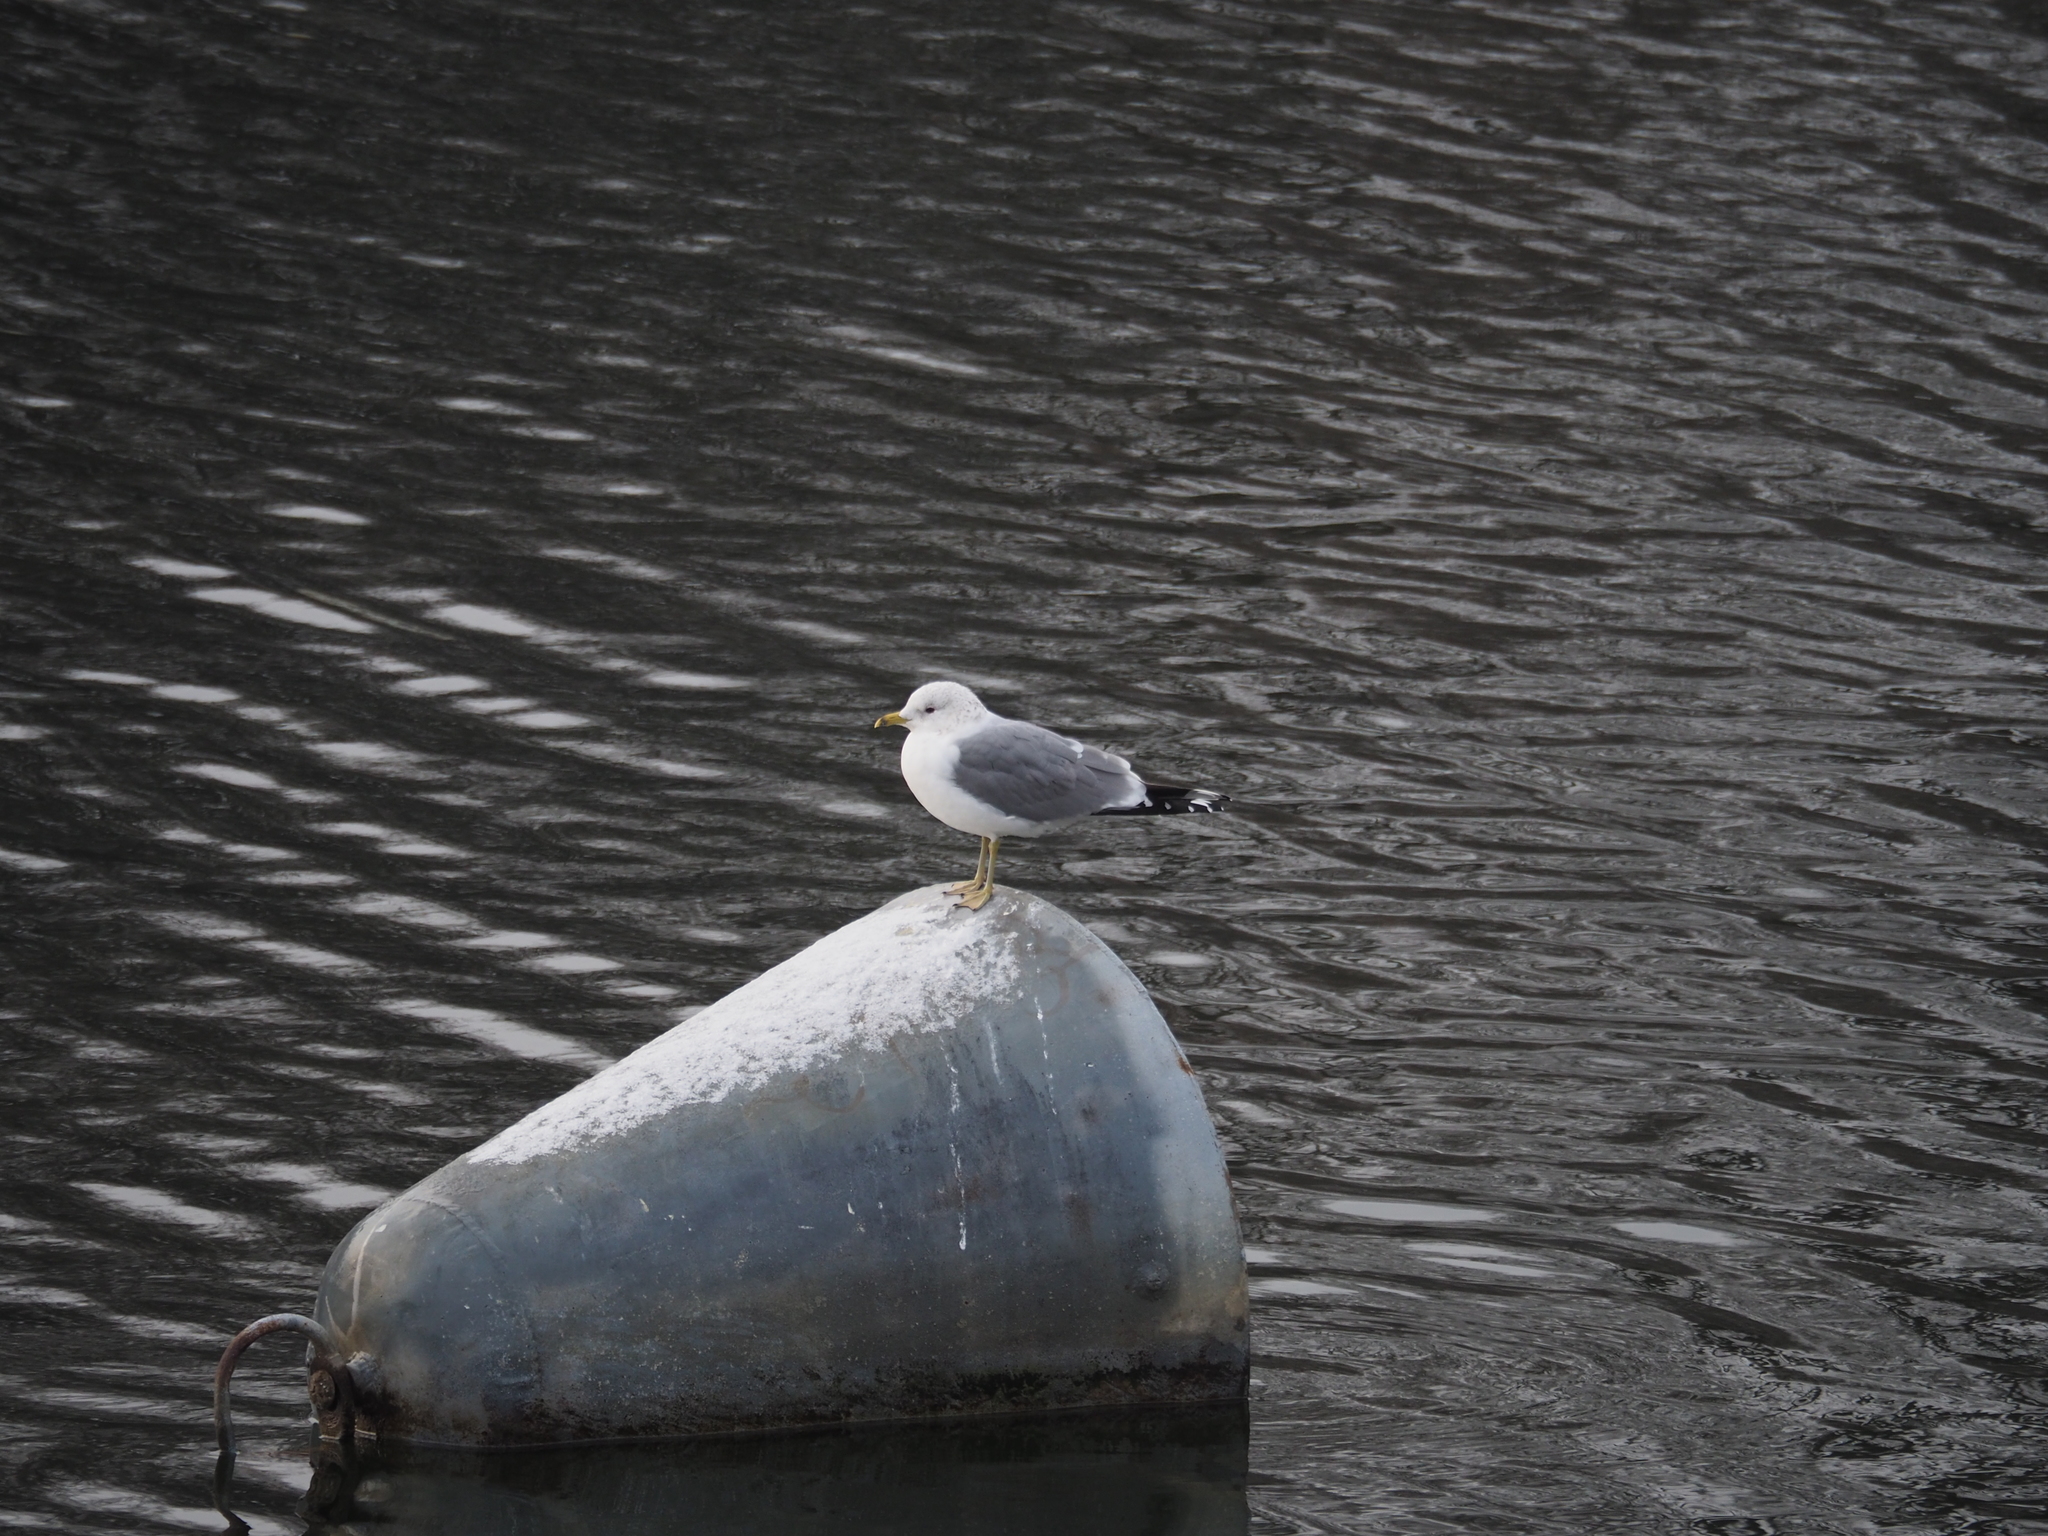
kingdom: Animalia
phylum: Chordata
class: Aves
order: Charadriiformes
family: Laridae
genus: Larus
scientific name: Larus canus
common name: Mew gull
